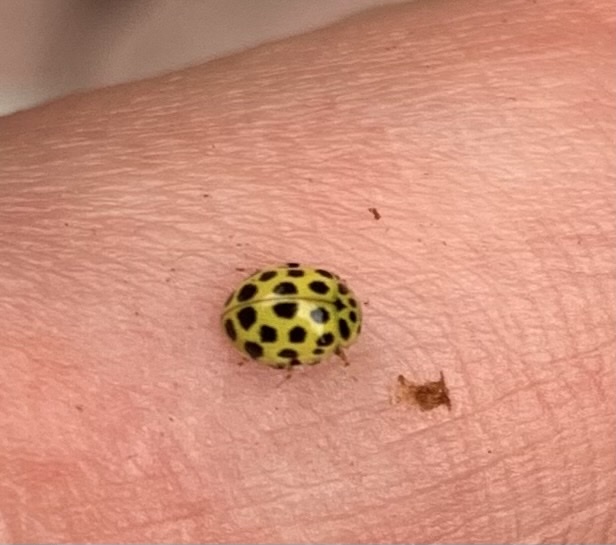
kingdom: Animalia
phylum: Arthropoda
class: Insecta
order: Coleoptera
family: Coccinellidae
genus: Psyllobora
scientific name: Psyllobora vigintiduopunctata
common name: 22-spot ladybird
